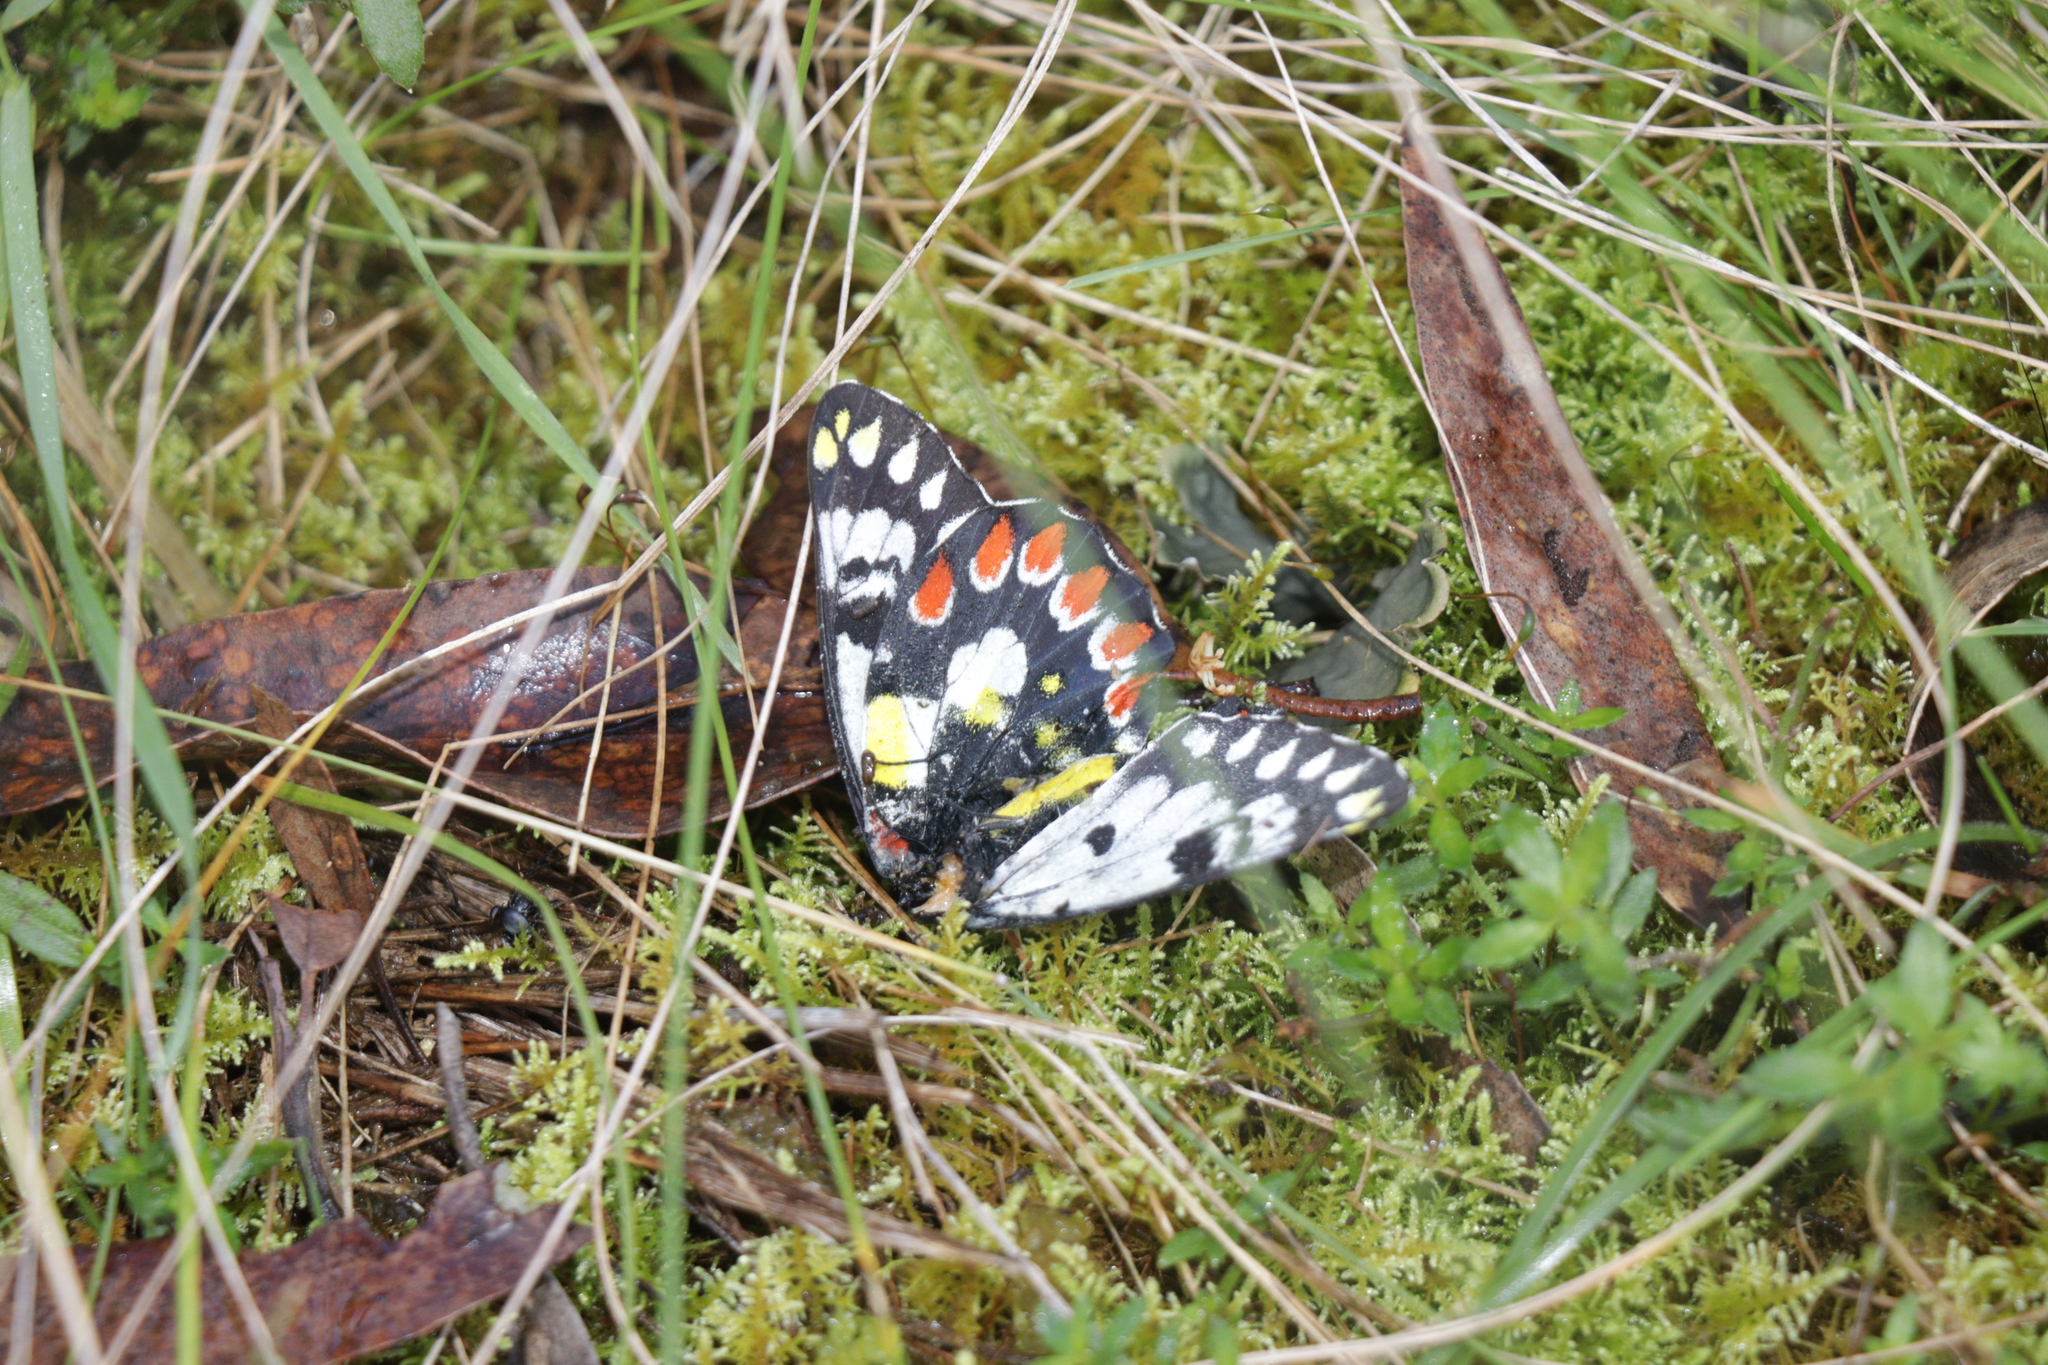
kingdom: Animalia
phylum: Arthropoda
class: Insecta
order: Lepidoptera
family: Pieridae
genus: Delias
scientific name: Delias aganippe
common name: Red-spotted jezebel
